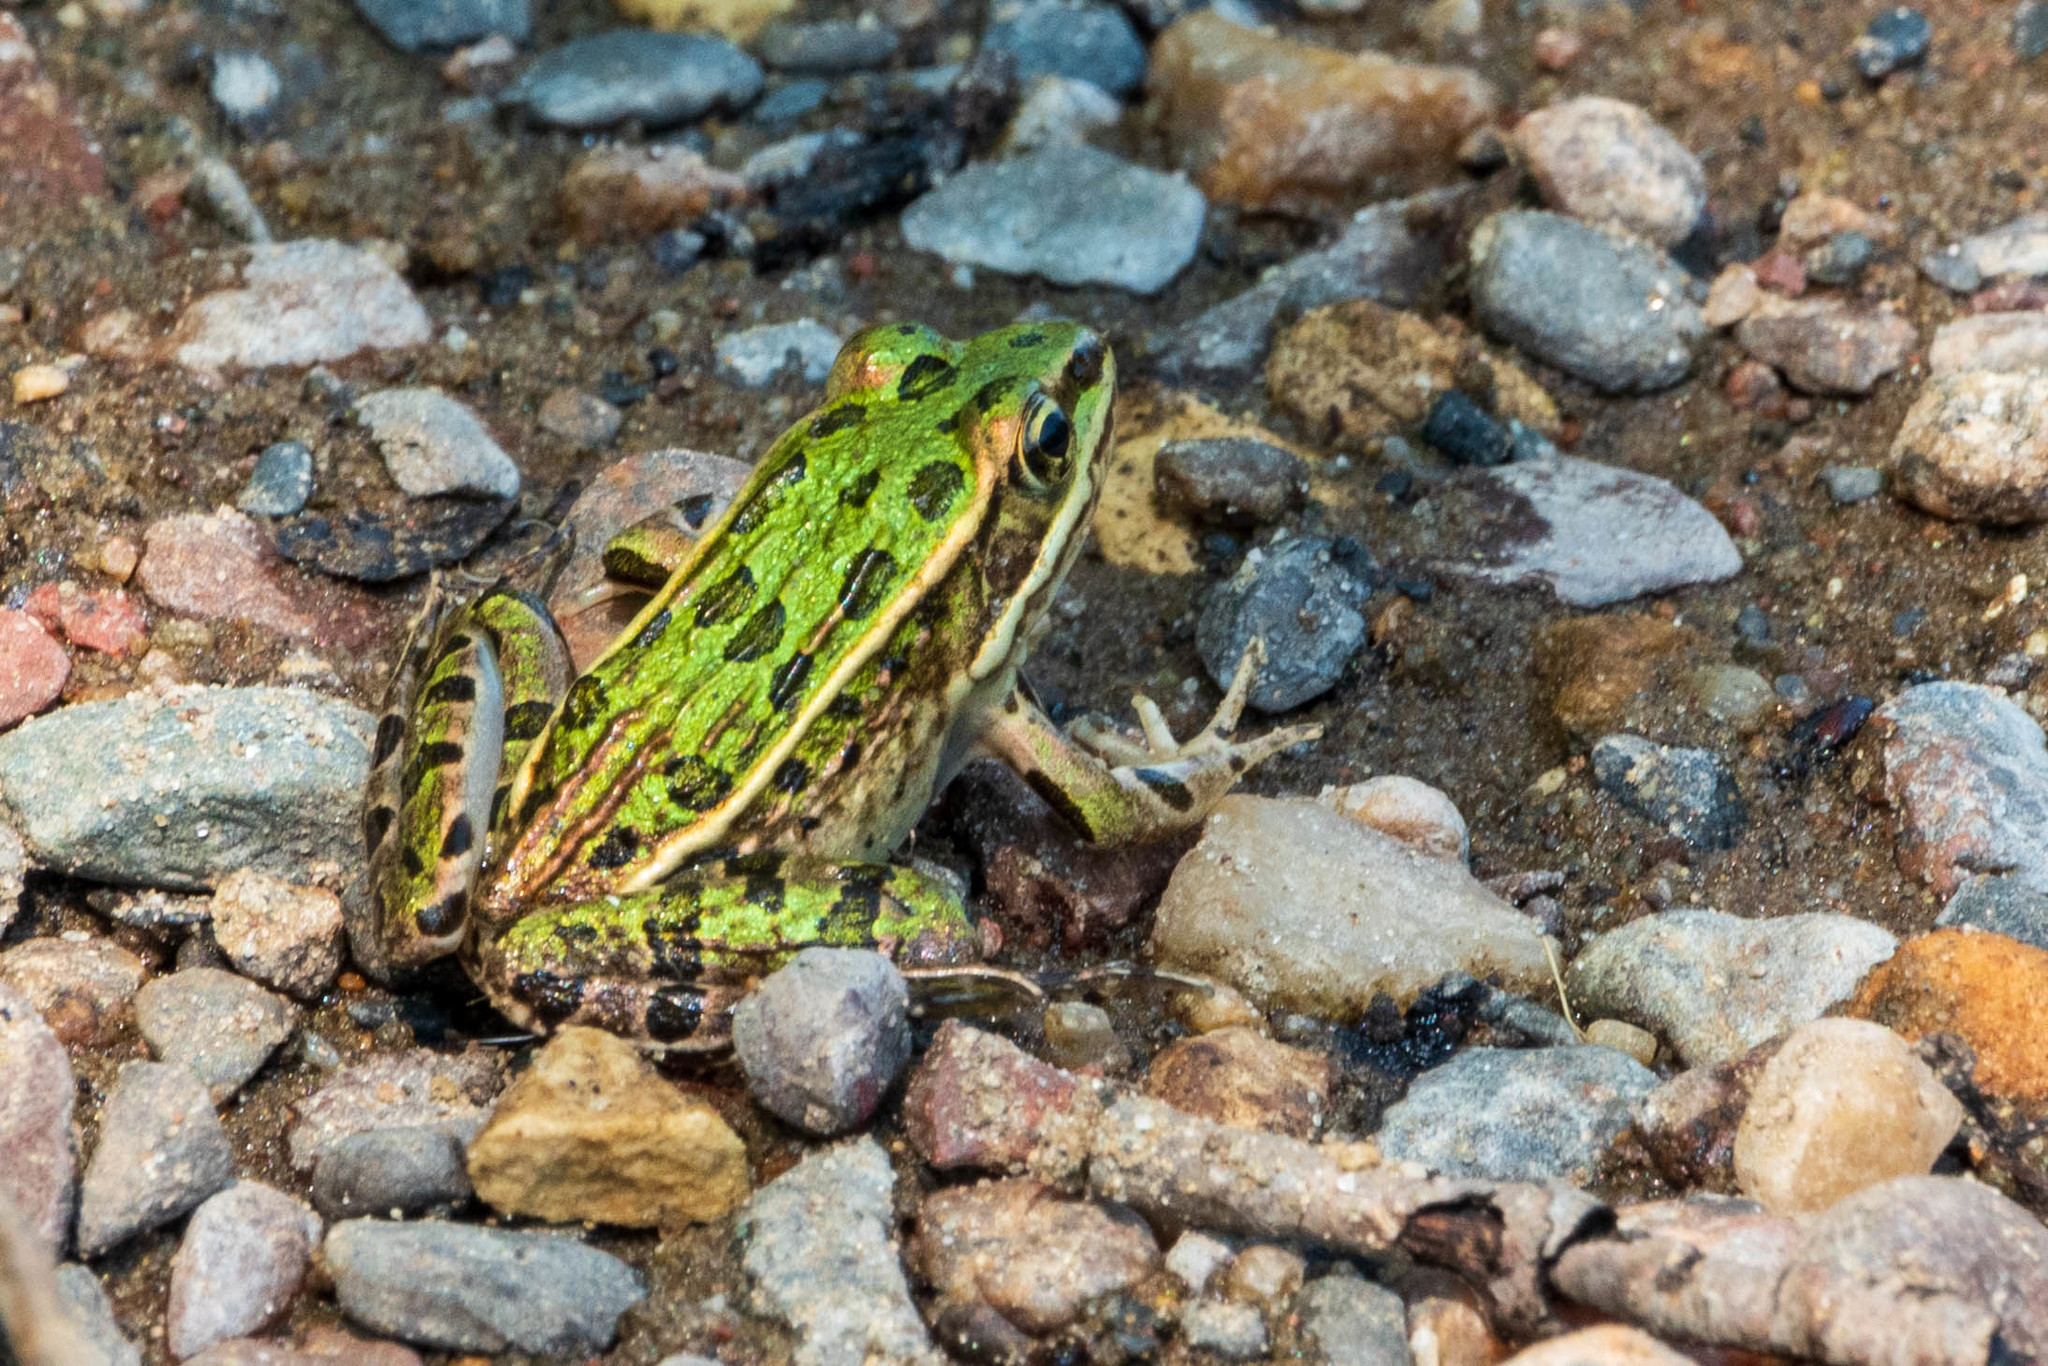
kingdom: Animalia
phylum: Chordata
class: Amphibia
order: Anura
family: Ranidae
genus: Lithobates
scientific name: Lithobates pipiens
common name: Northern leopard frog
